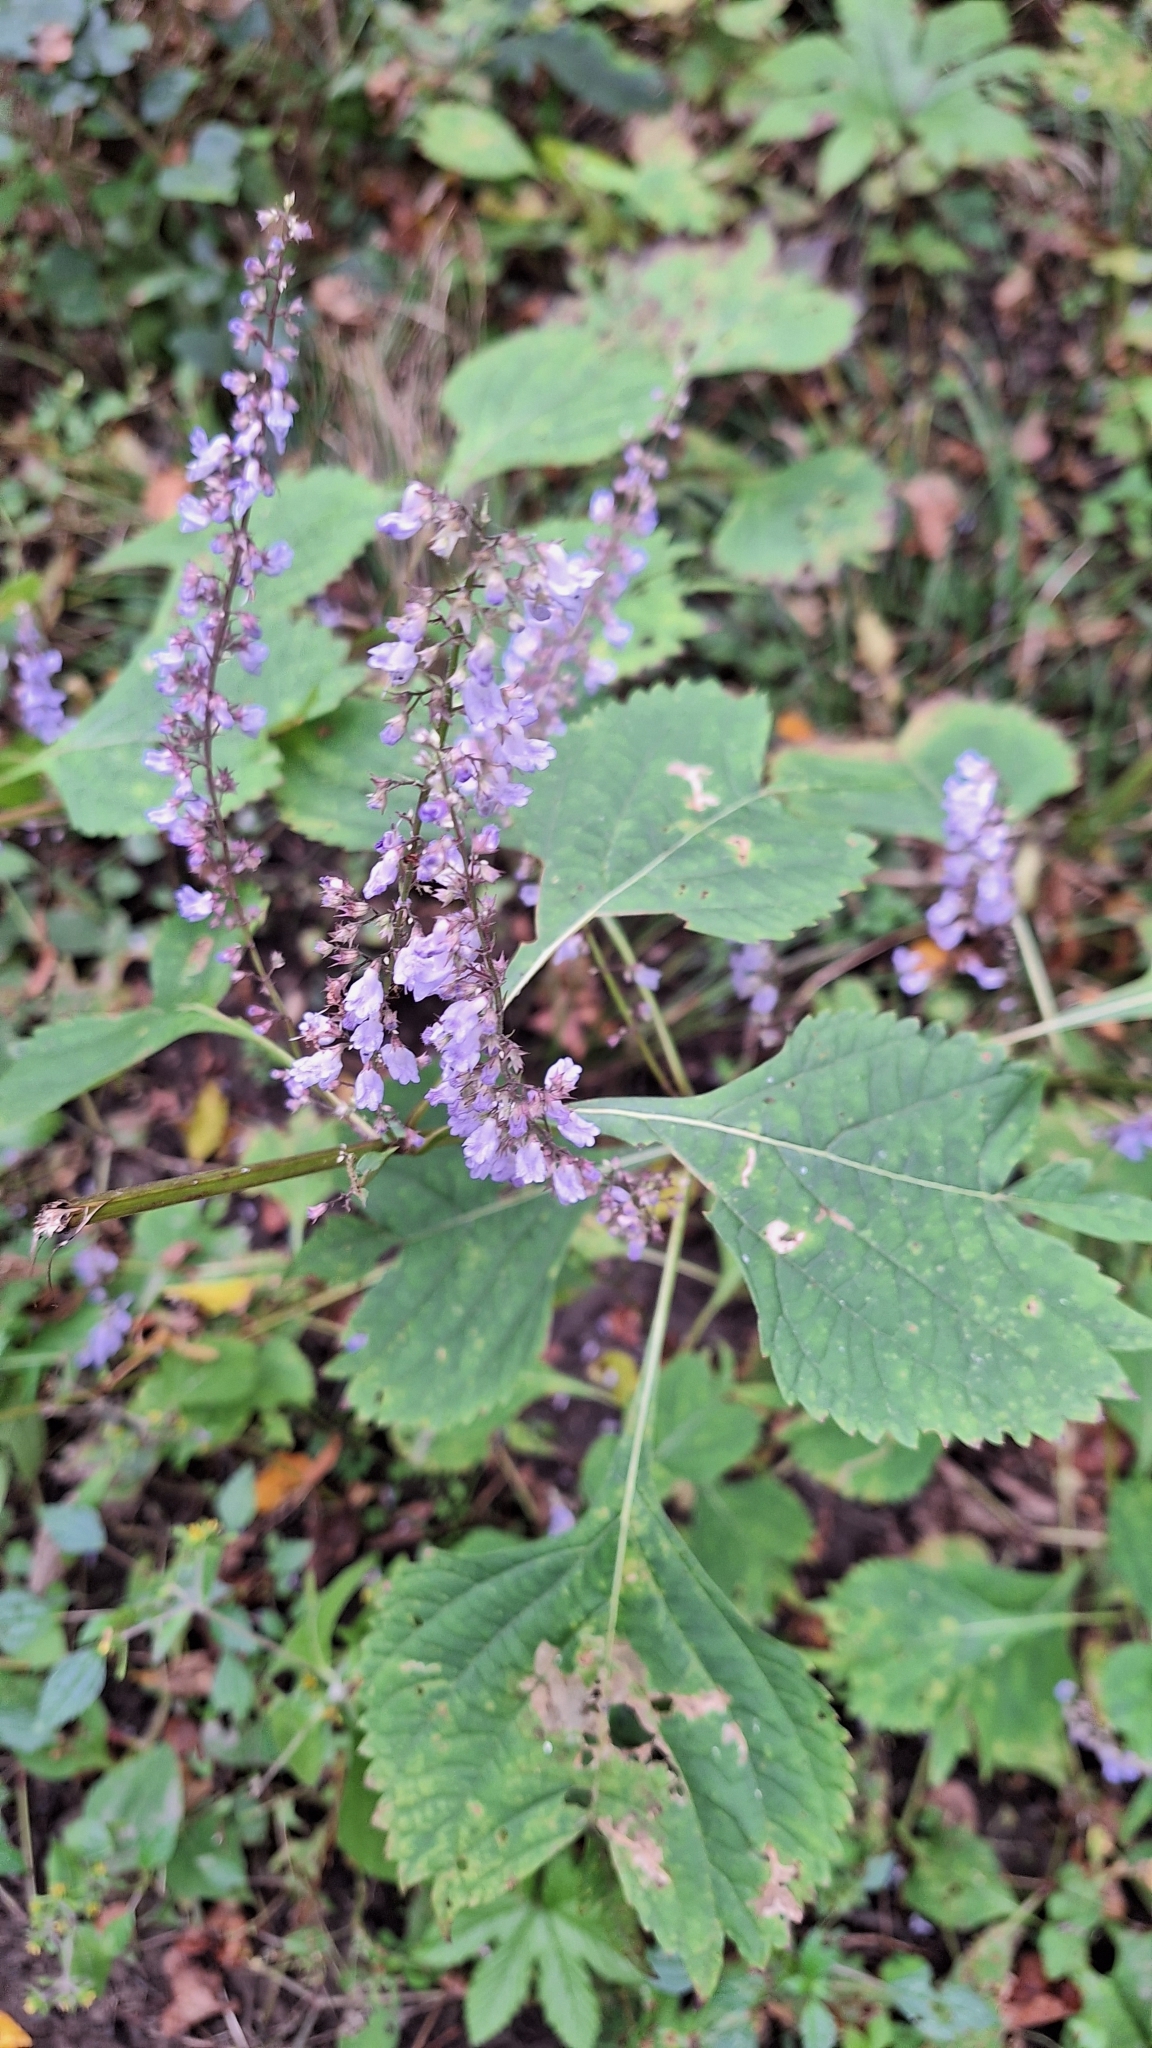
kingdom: Plantae
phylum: Tracheophyta
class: Magnoliopsida
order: Lamiales
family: Lamiaceae
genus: Isodon
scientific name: Isodon excisus
